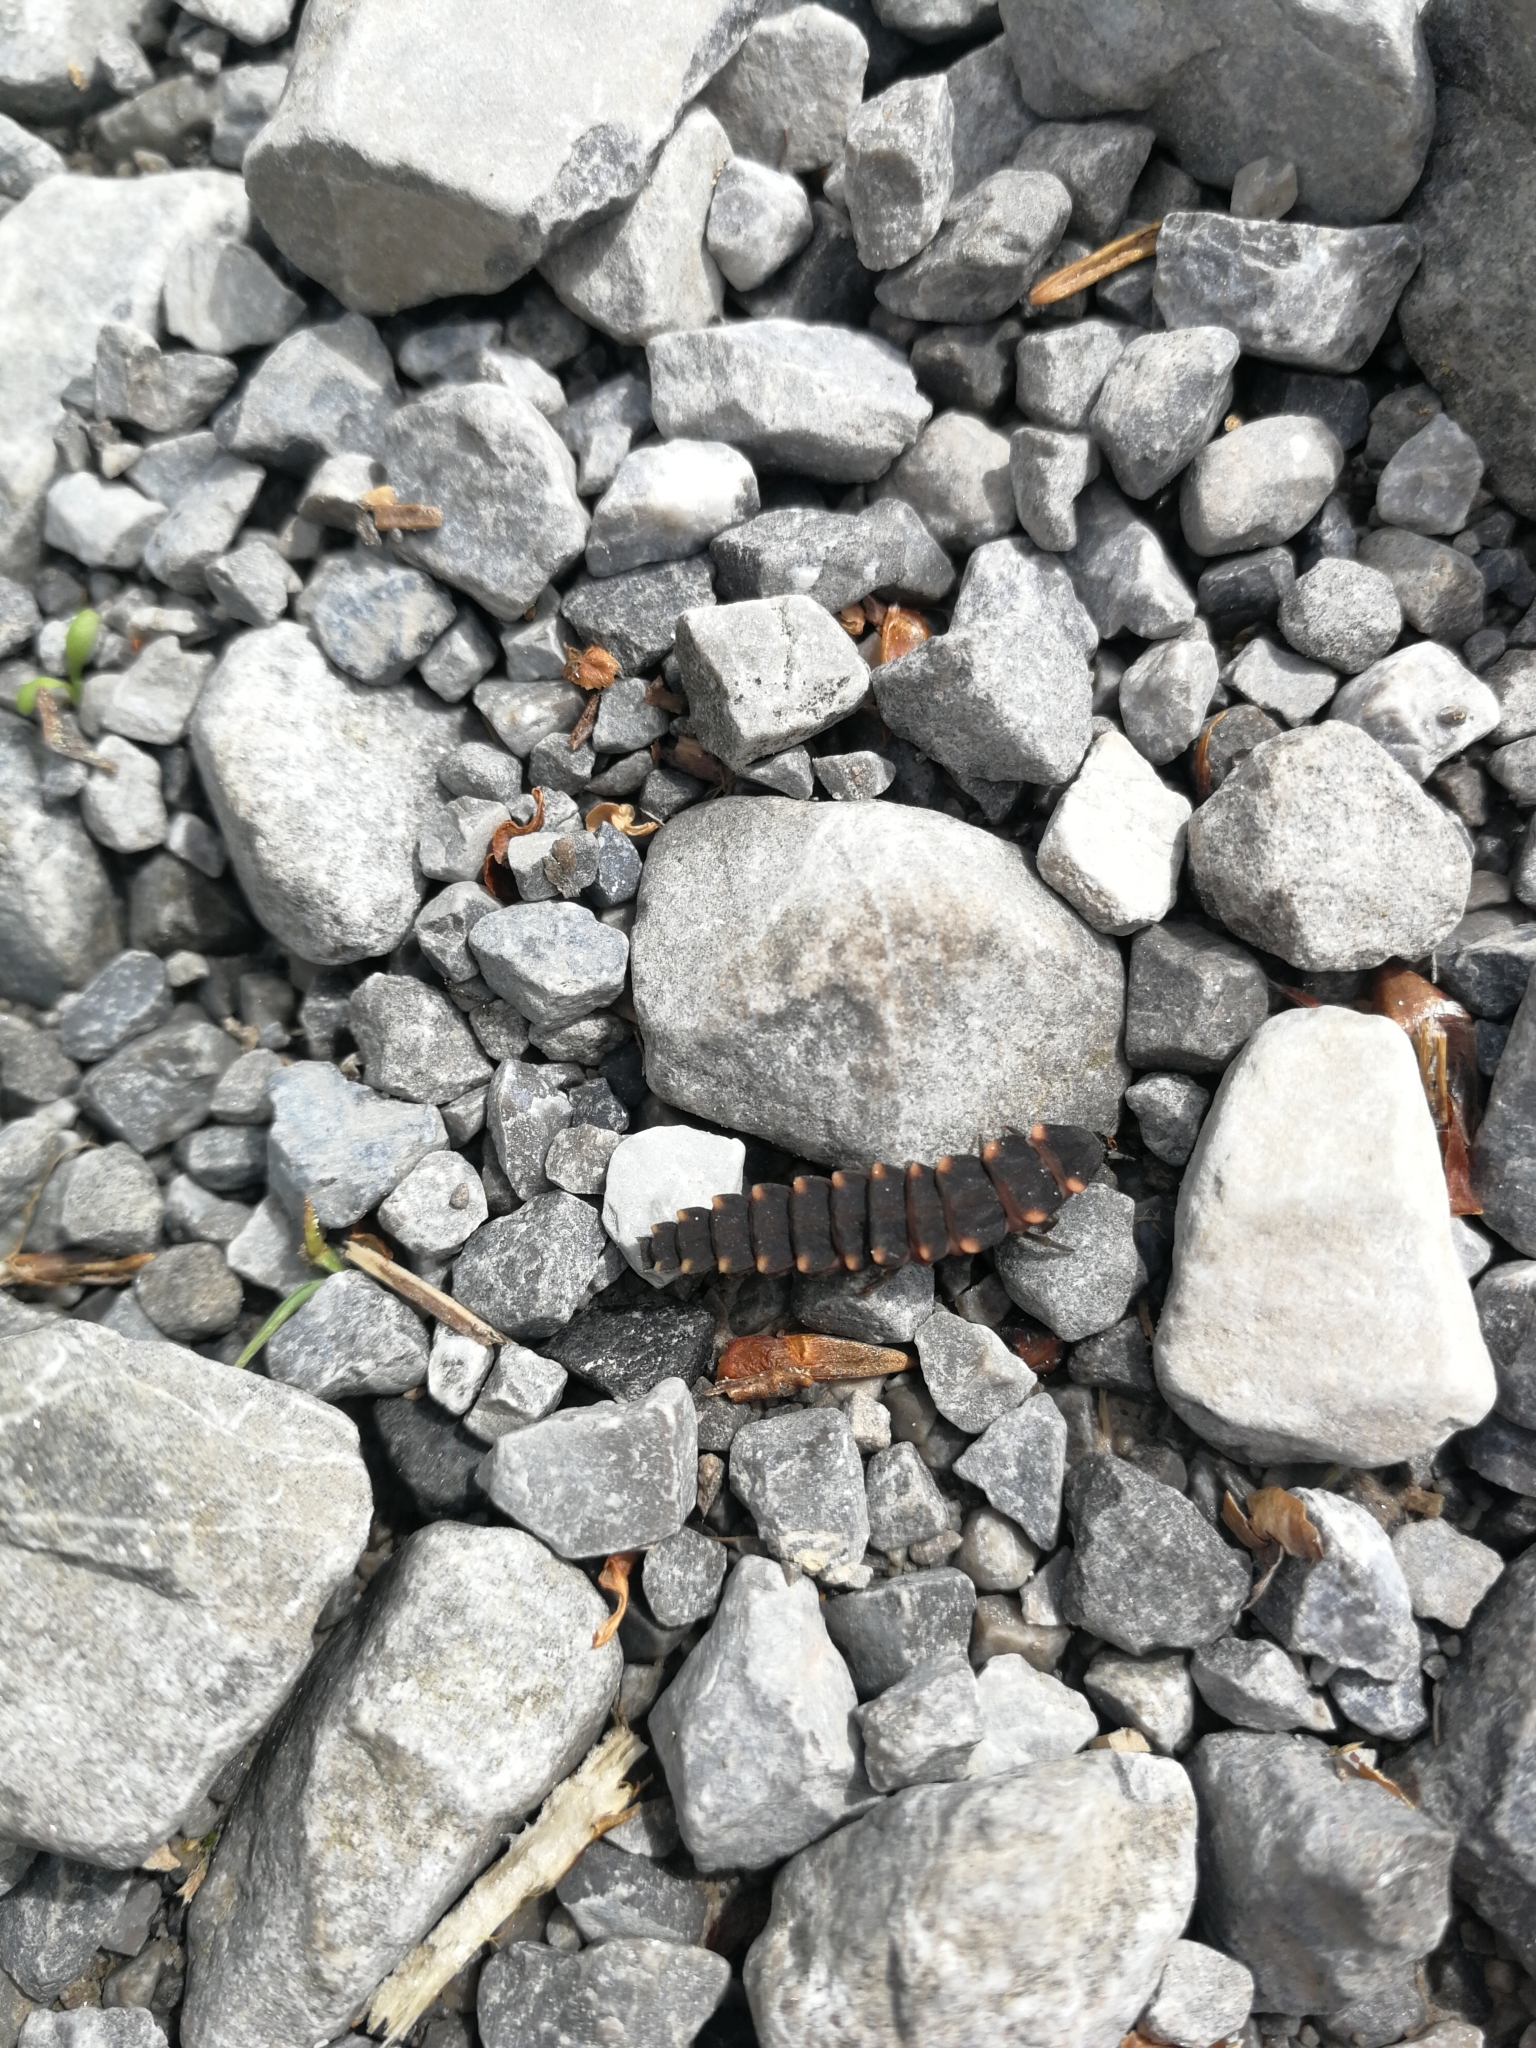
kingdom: Animalia
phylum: Arthropoda
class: Insecta
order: Coleoptera
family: Lampyridae
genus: Lampyris
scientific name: Lampyris noctiluca
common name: Glow-worm
